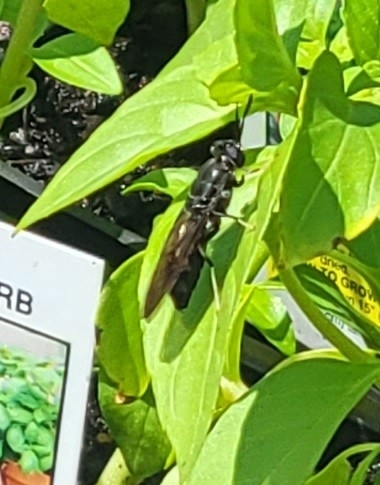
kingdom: Animalia
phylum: Arthropoda
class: Insecta
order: Diptera
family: Stratiomyidae
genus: Hermetia
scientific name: Hermetia illucens
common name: Black soldier fly
